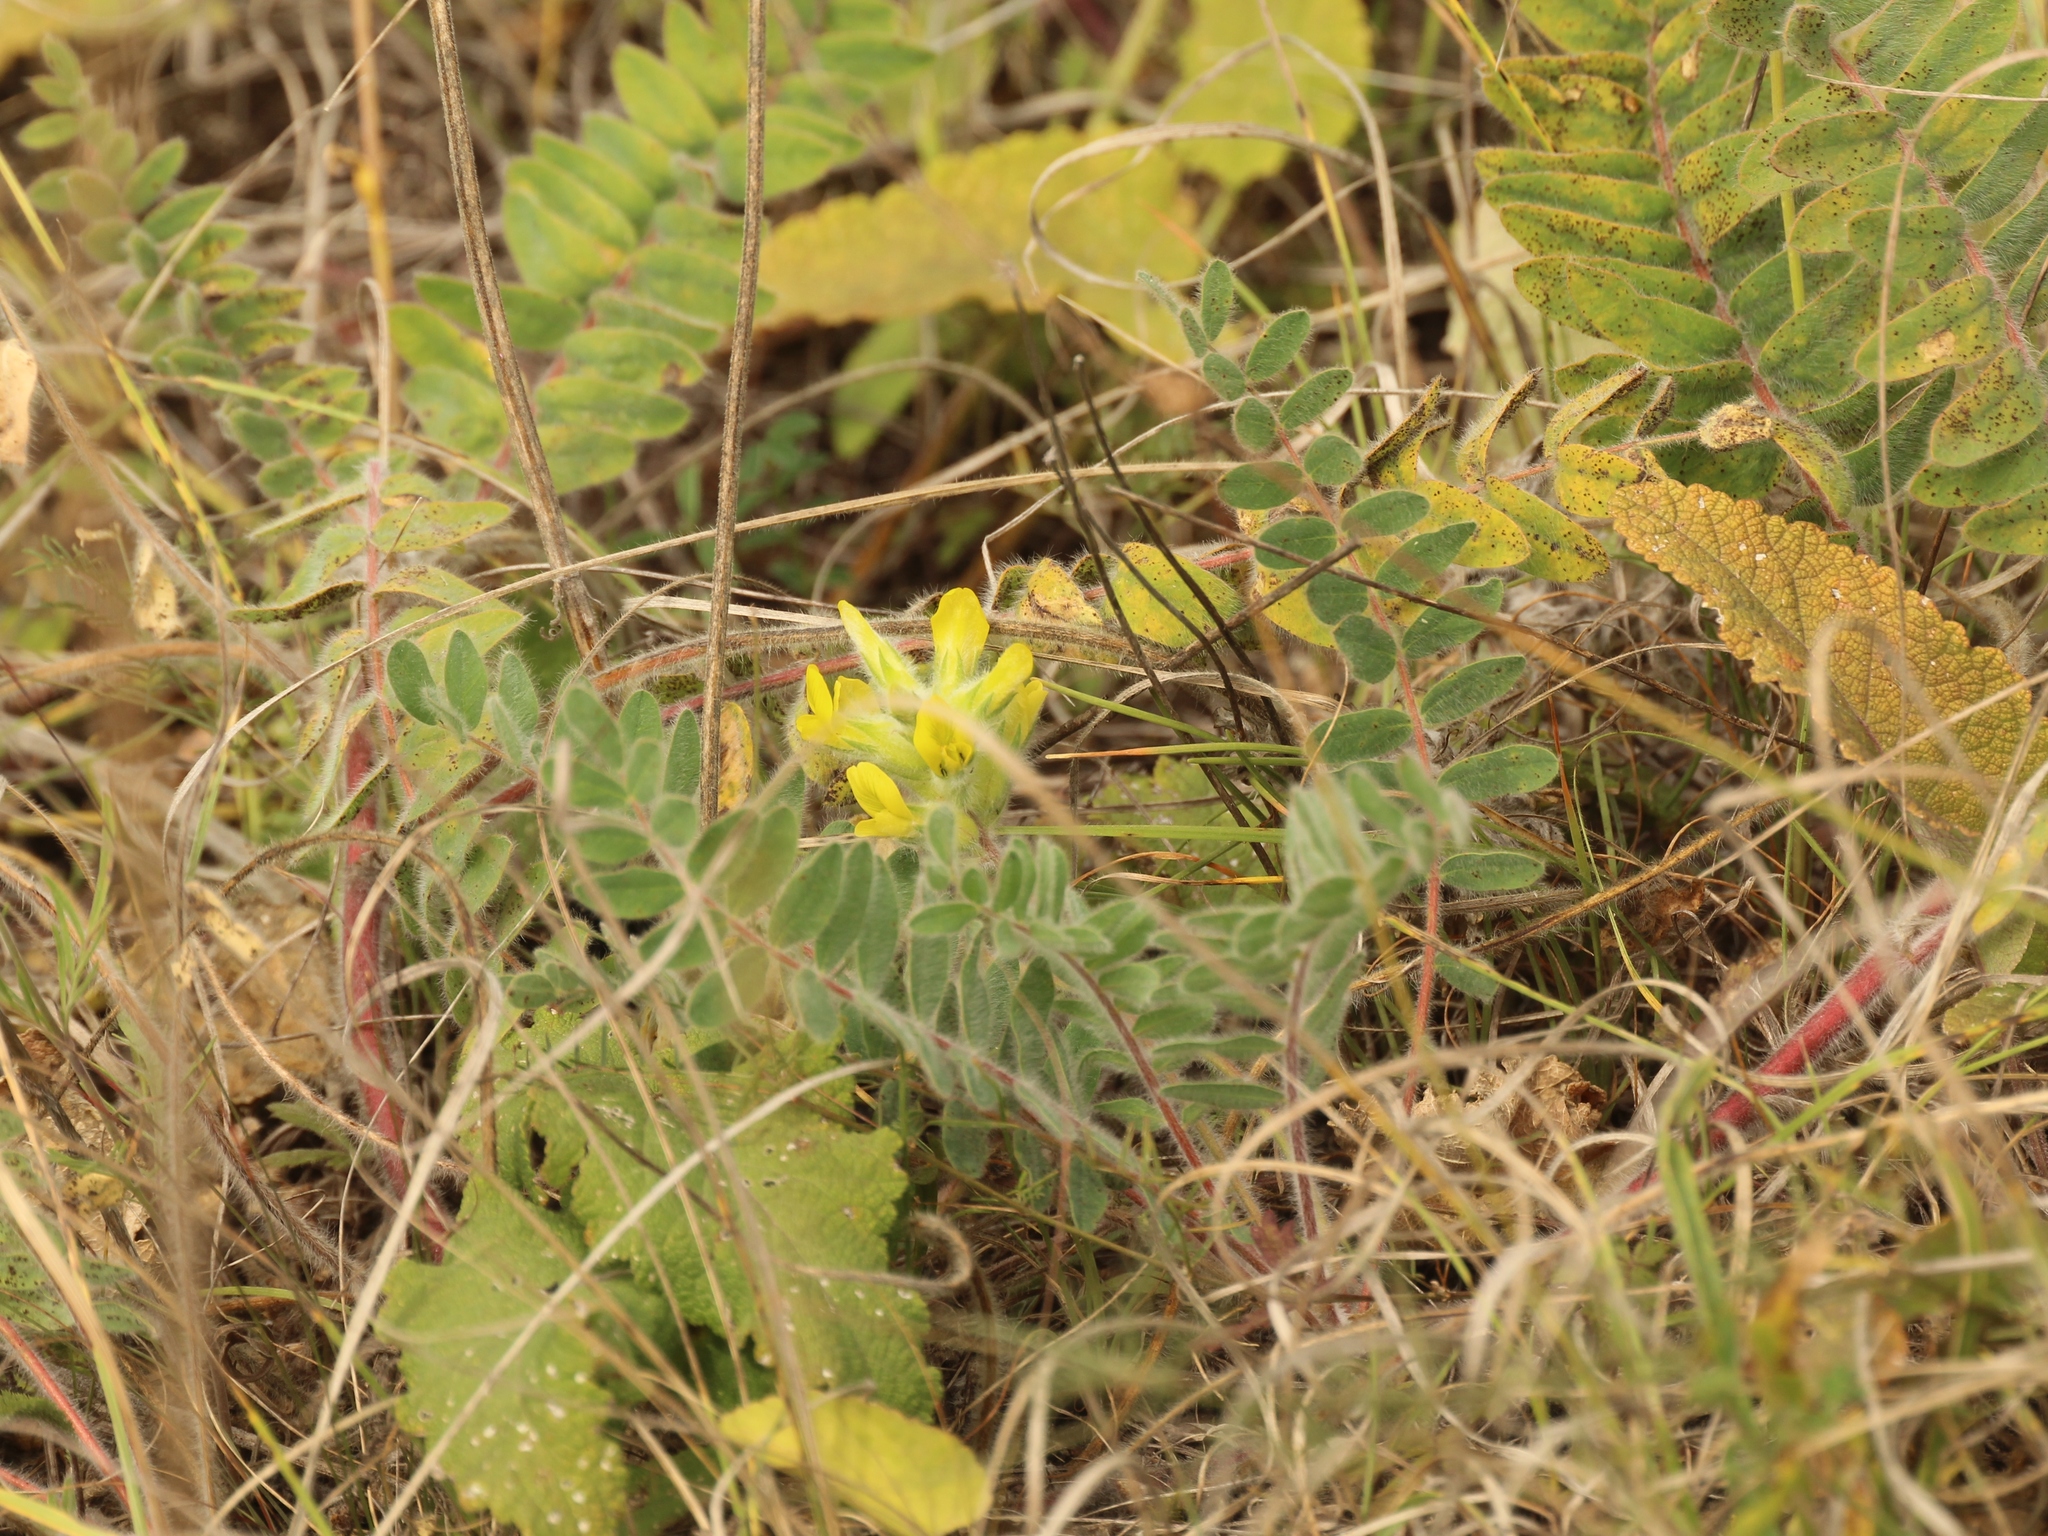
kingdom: Plantae
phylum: Tracheophyta
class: Magnoliopsida
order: Fabales
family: Fabaceae
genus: Astragalus
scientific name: Astragalus dasyanthus
